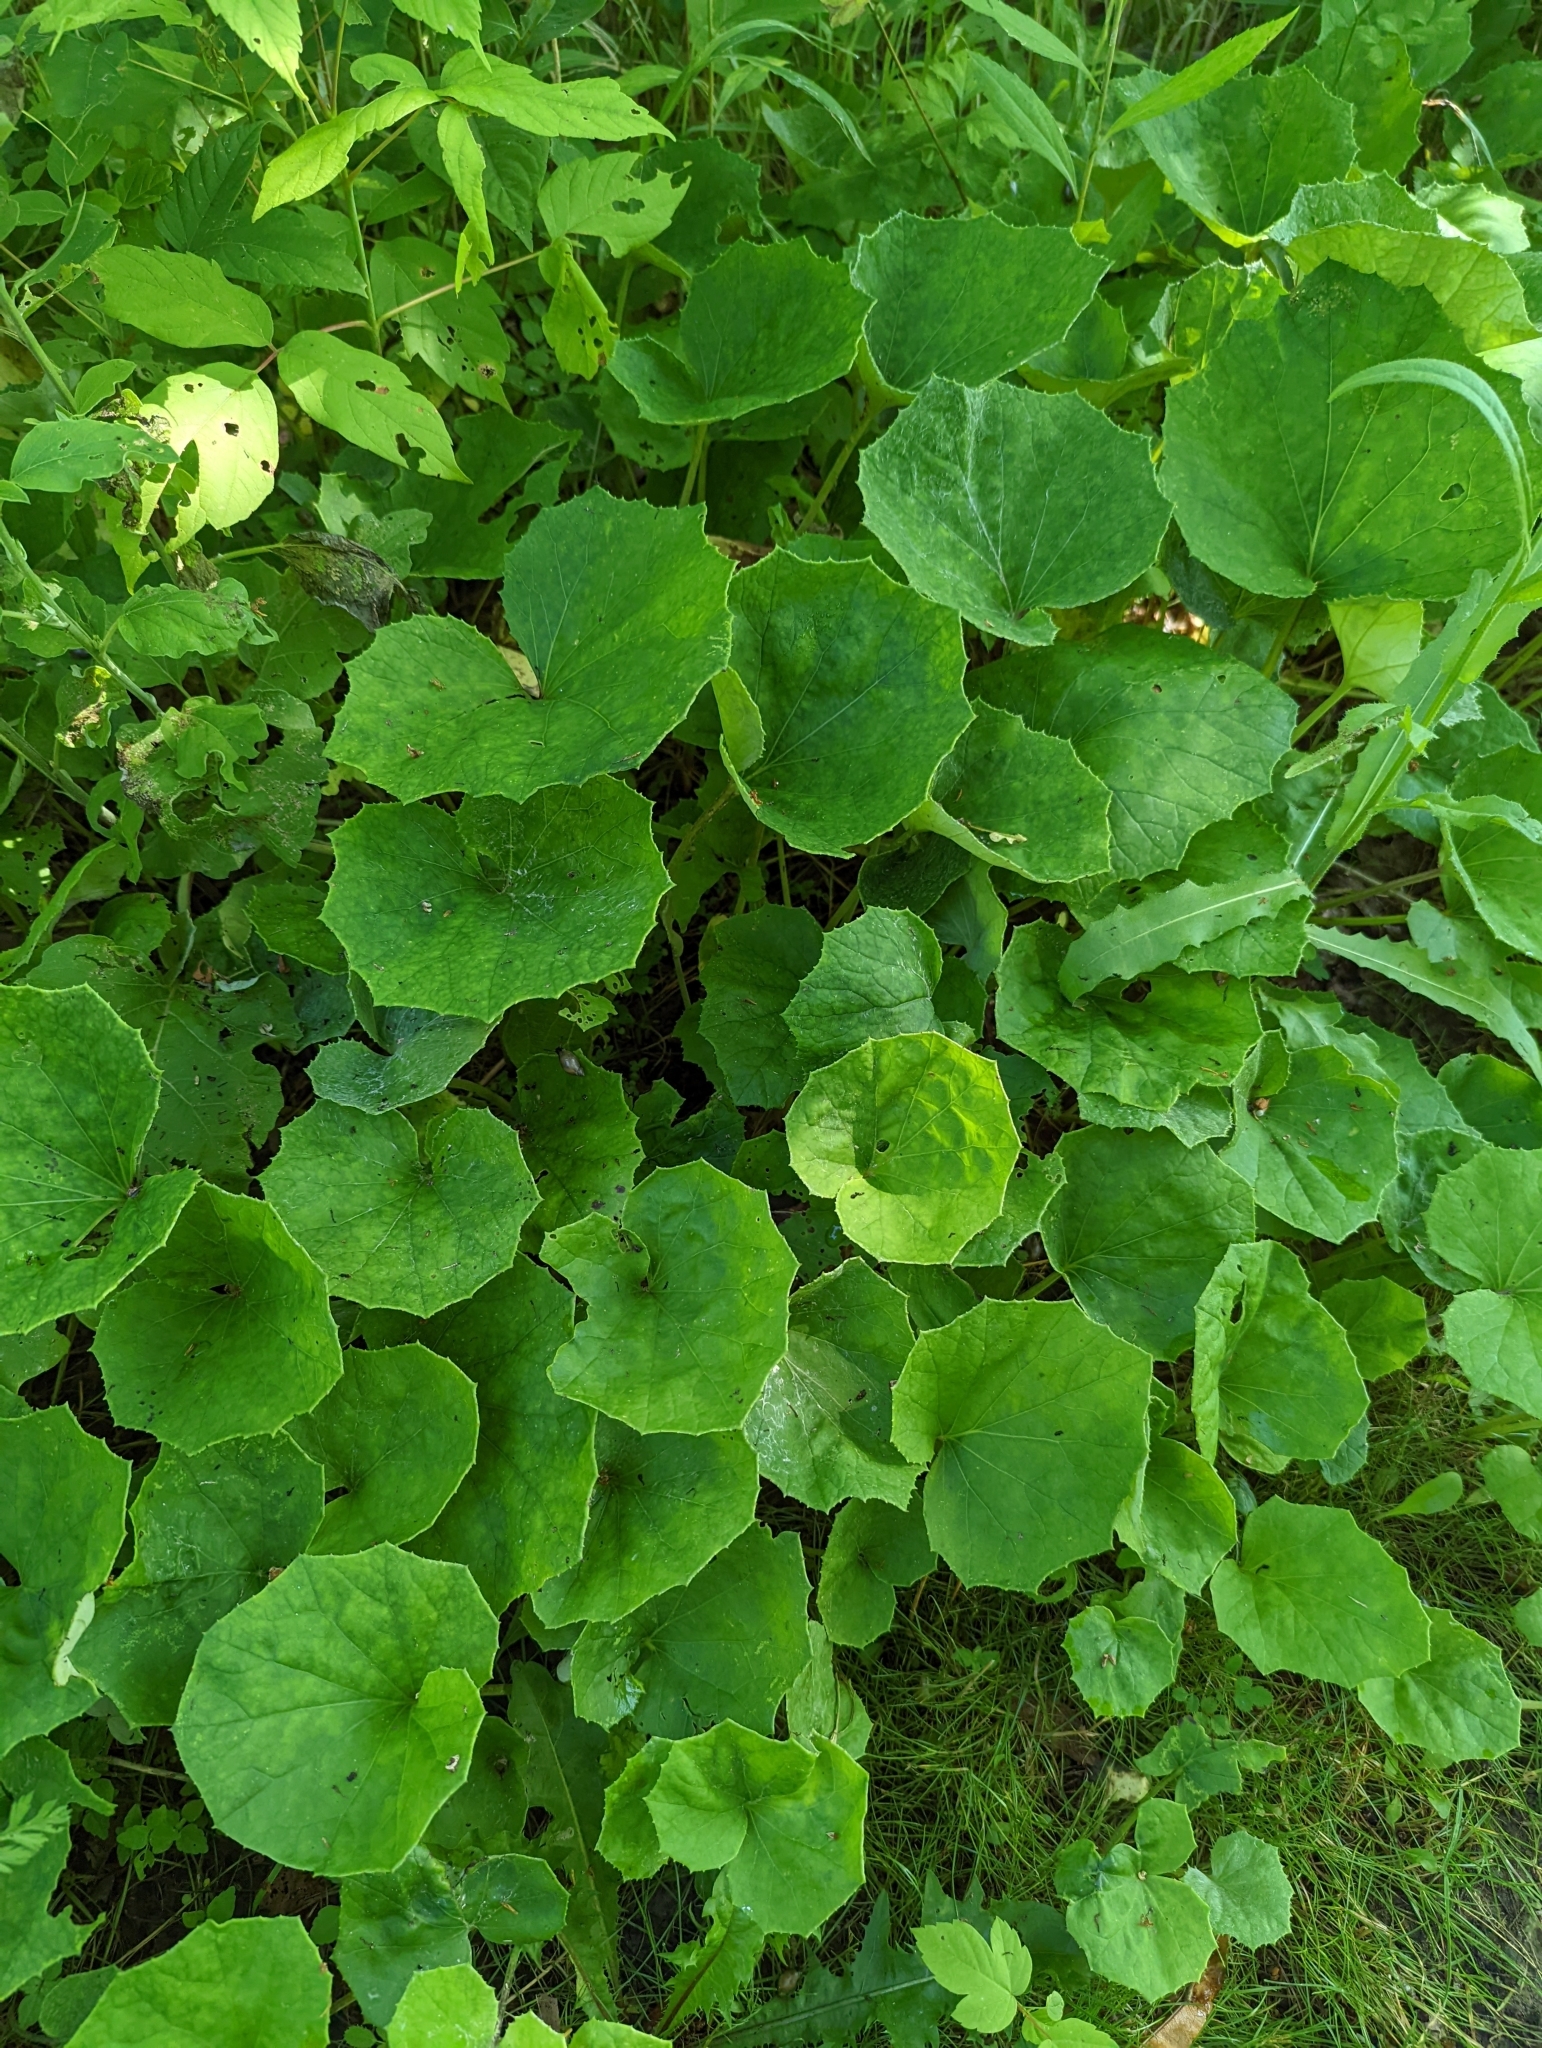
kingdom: Plantae
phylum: Tracheophyta
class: Magnoliopsida
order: Asterales
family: Asteraceae
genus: Tussilago
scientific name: Tussilago farfara
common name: Coltsfoot
